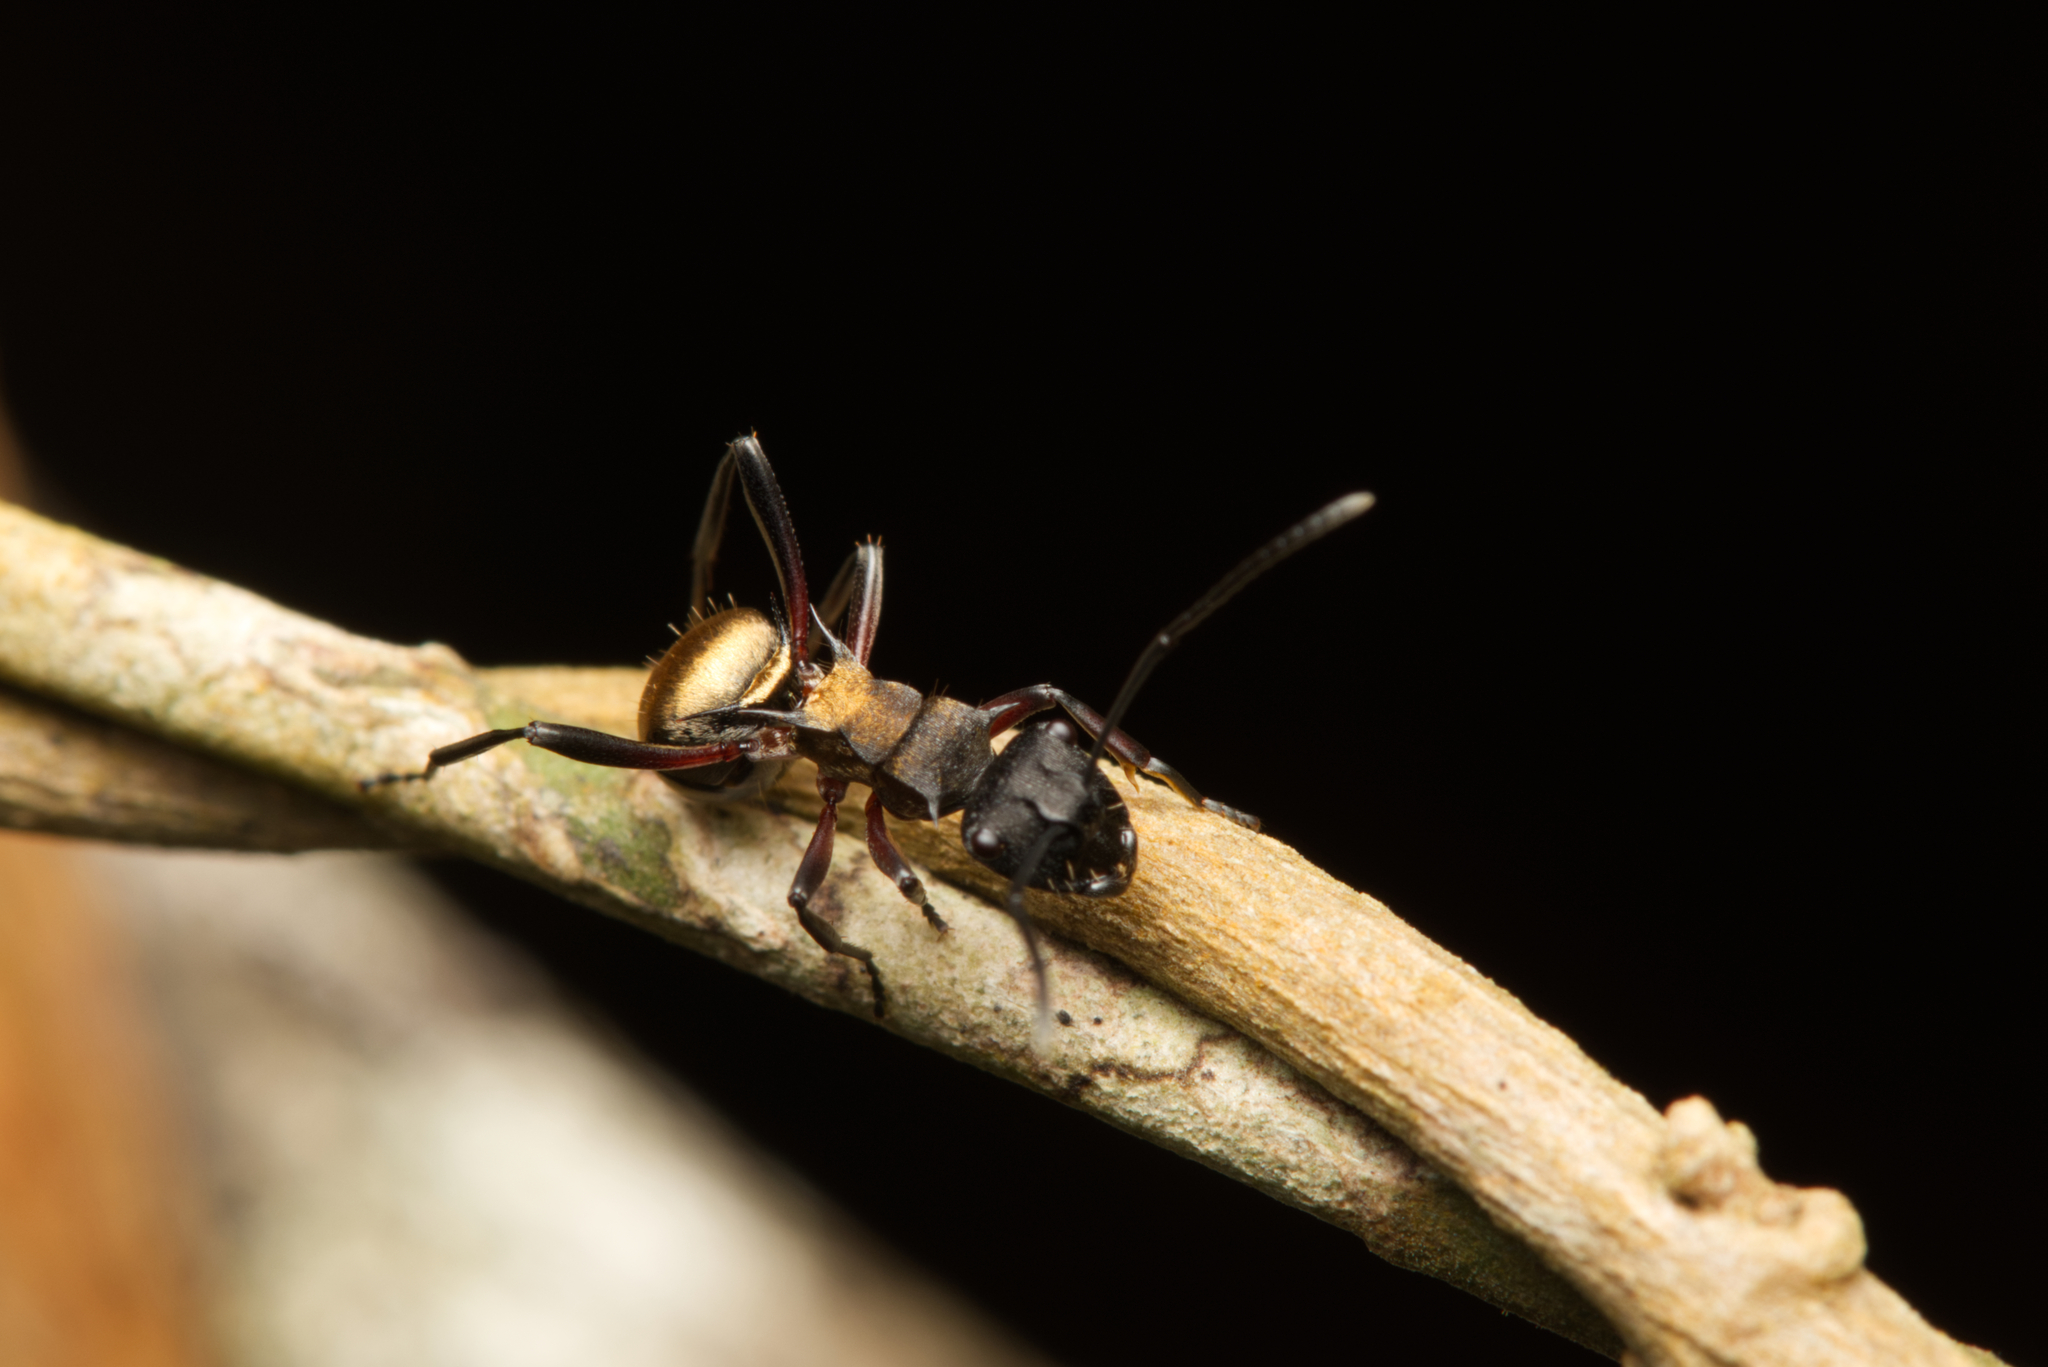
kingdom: Animalia
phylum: Arthropoda
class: Insecta
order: Hymenoptera
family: Formicidae
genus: Polyrhachis
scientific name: Polyrhachis rufifemur
